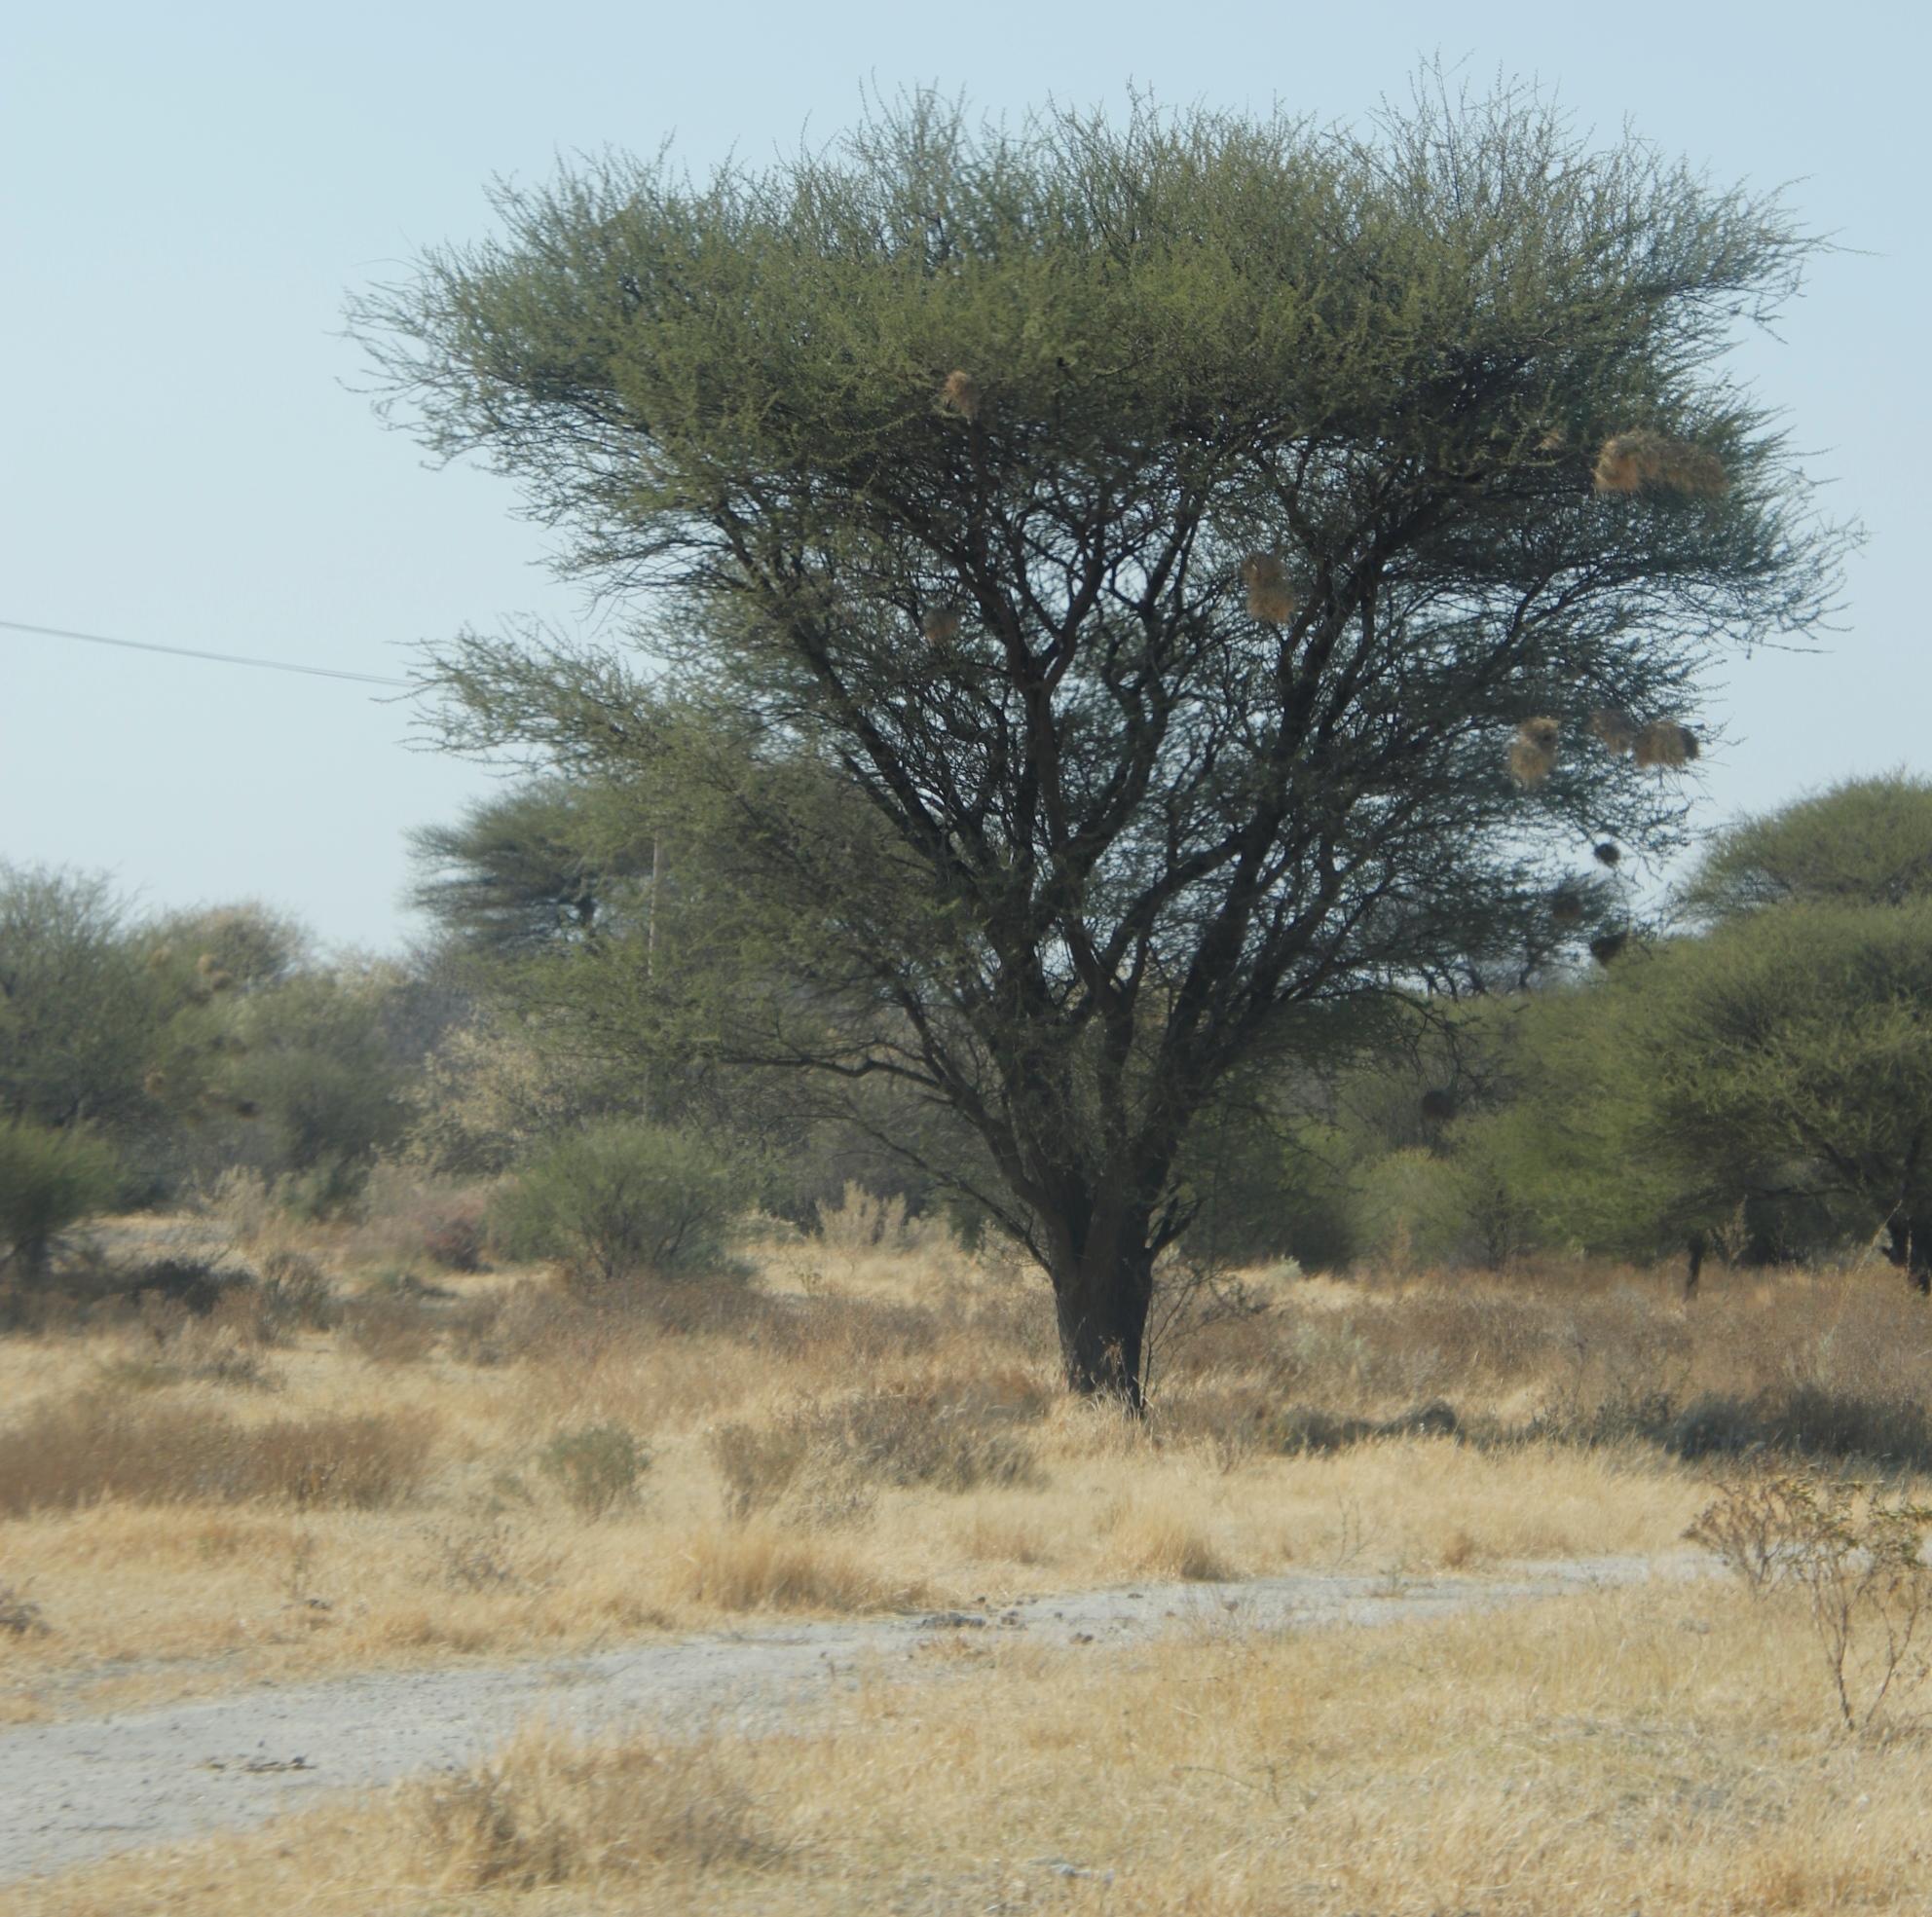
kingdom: Animalia
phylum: Chordata
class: Aves
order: Passeriformes
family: Passeridae
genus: Plocepasser
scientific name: Plocepasser mahali
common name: White-browed sparrow-weaver
